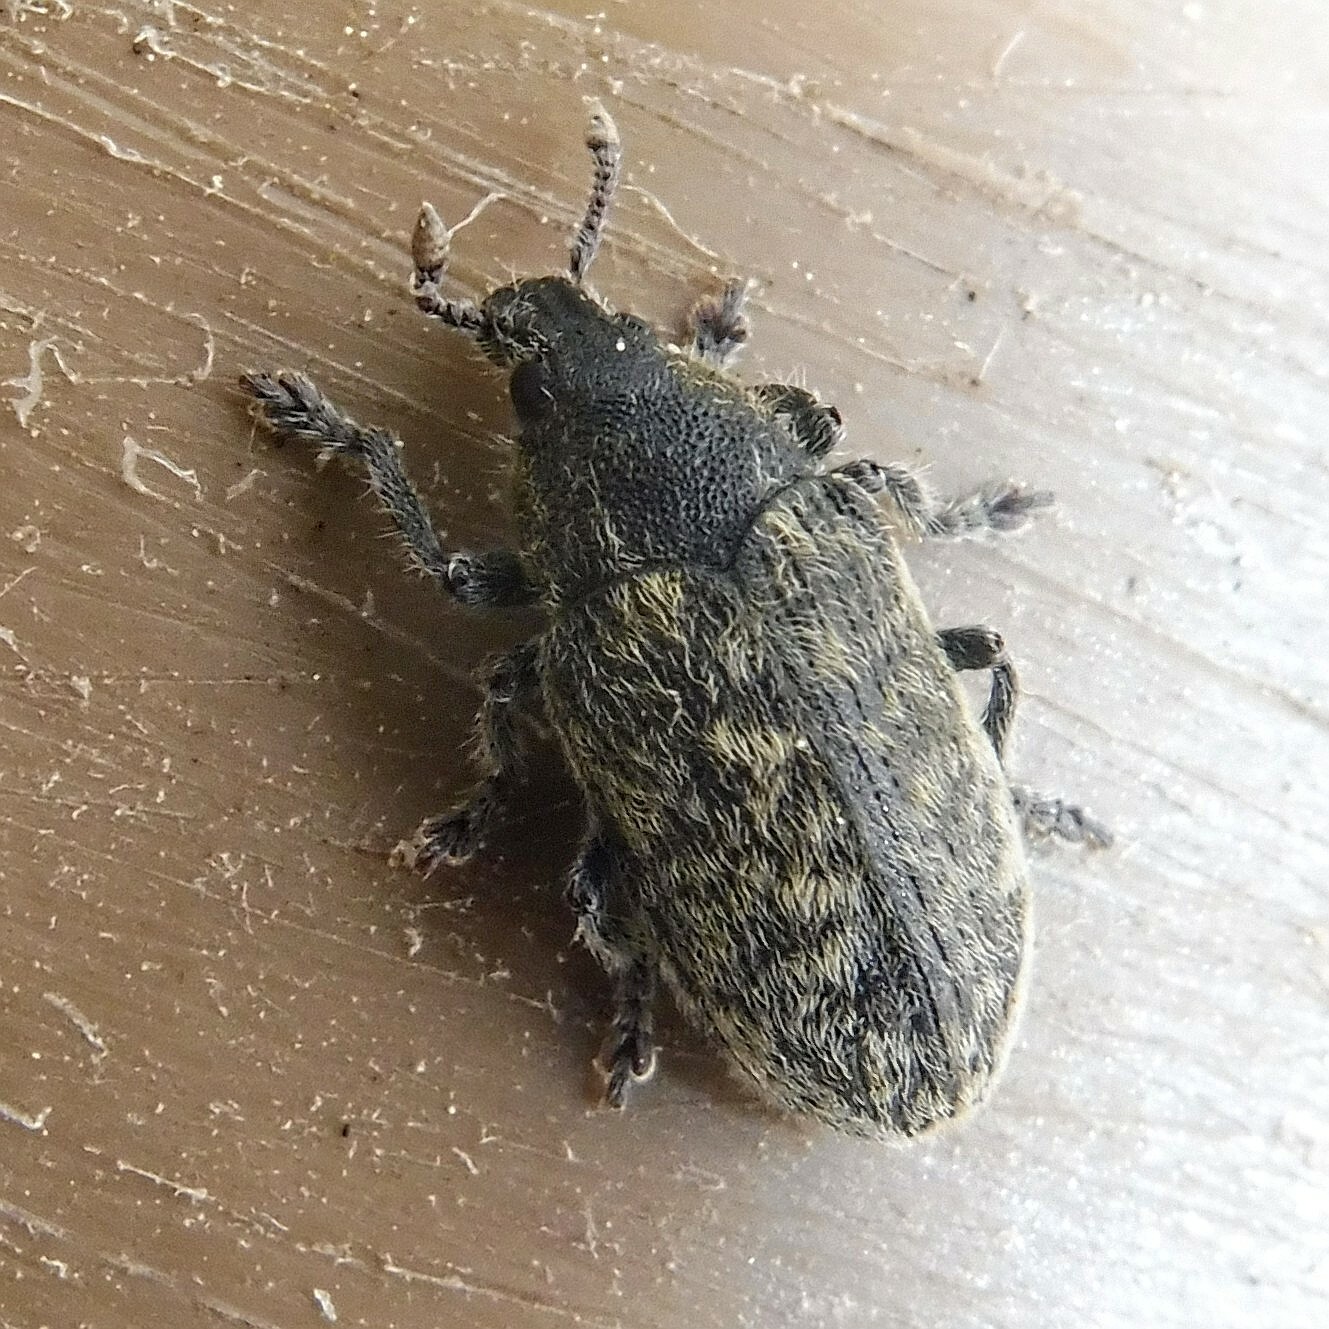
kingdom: Animalia
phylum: Arthropoda
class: Insecta
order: Coleoptera
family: Curculionidae
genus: Rhinocyllus
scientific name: Rhinocyllus conicus
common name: Weevil
